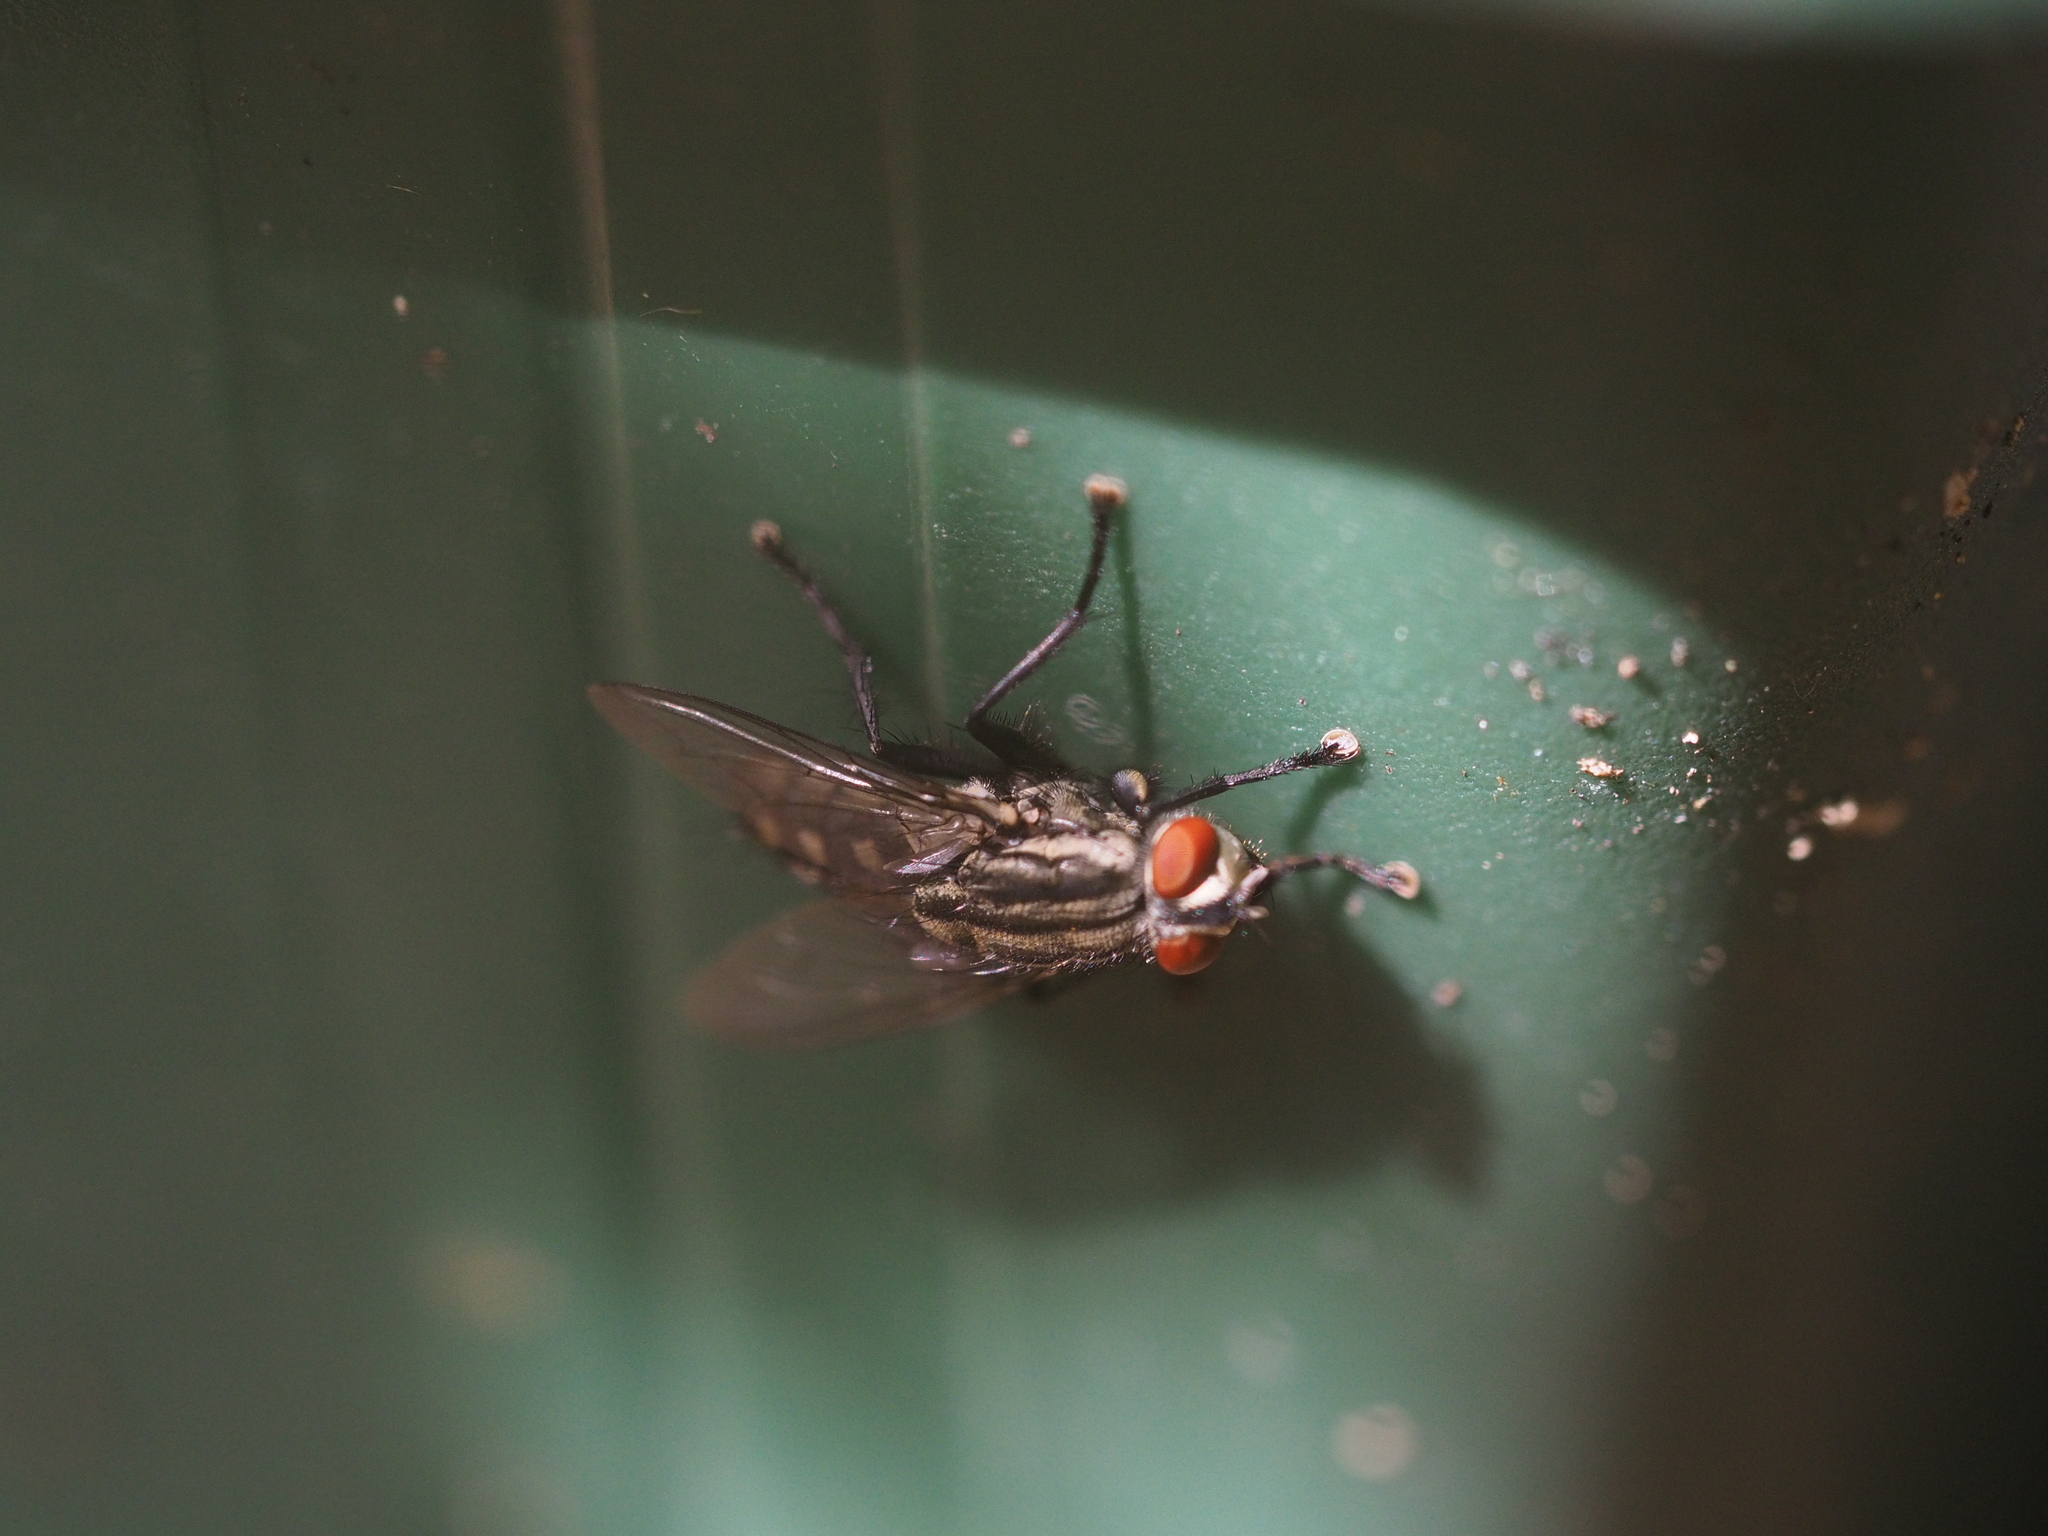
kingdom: Animalia
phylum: Arthropoda
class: Insecta
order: Diptera
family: Sarcophagidae
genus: Sarcophaga
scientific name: Sarcophaga africa
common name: Flesh fly
